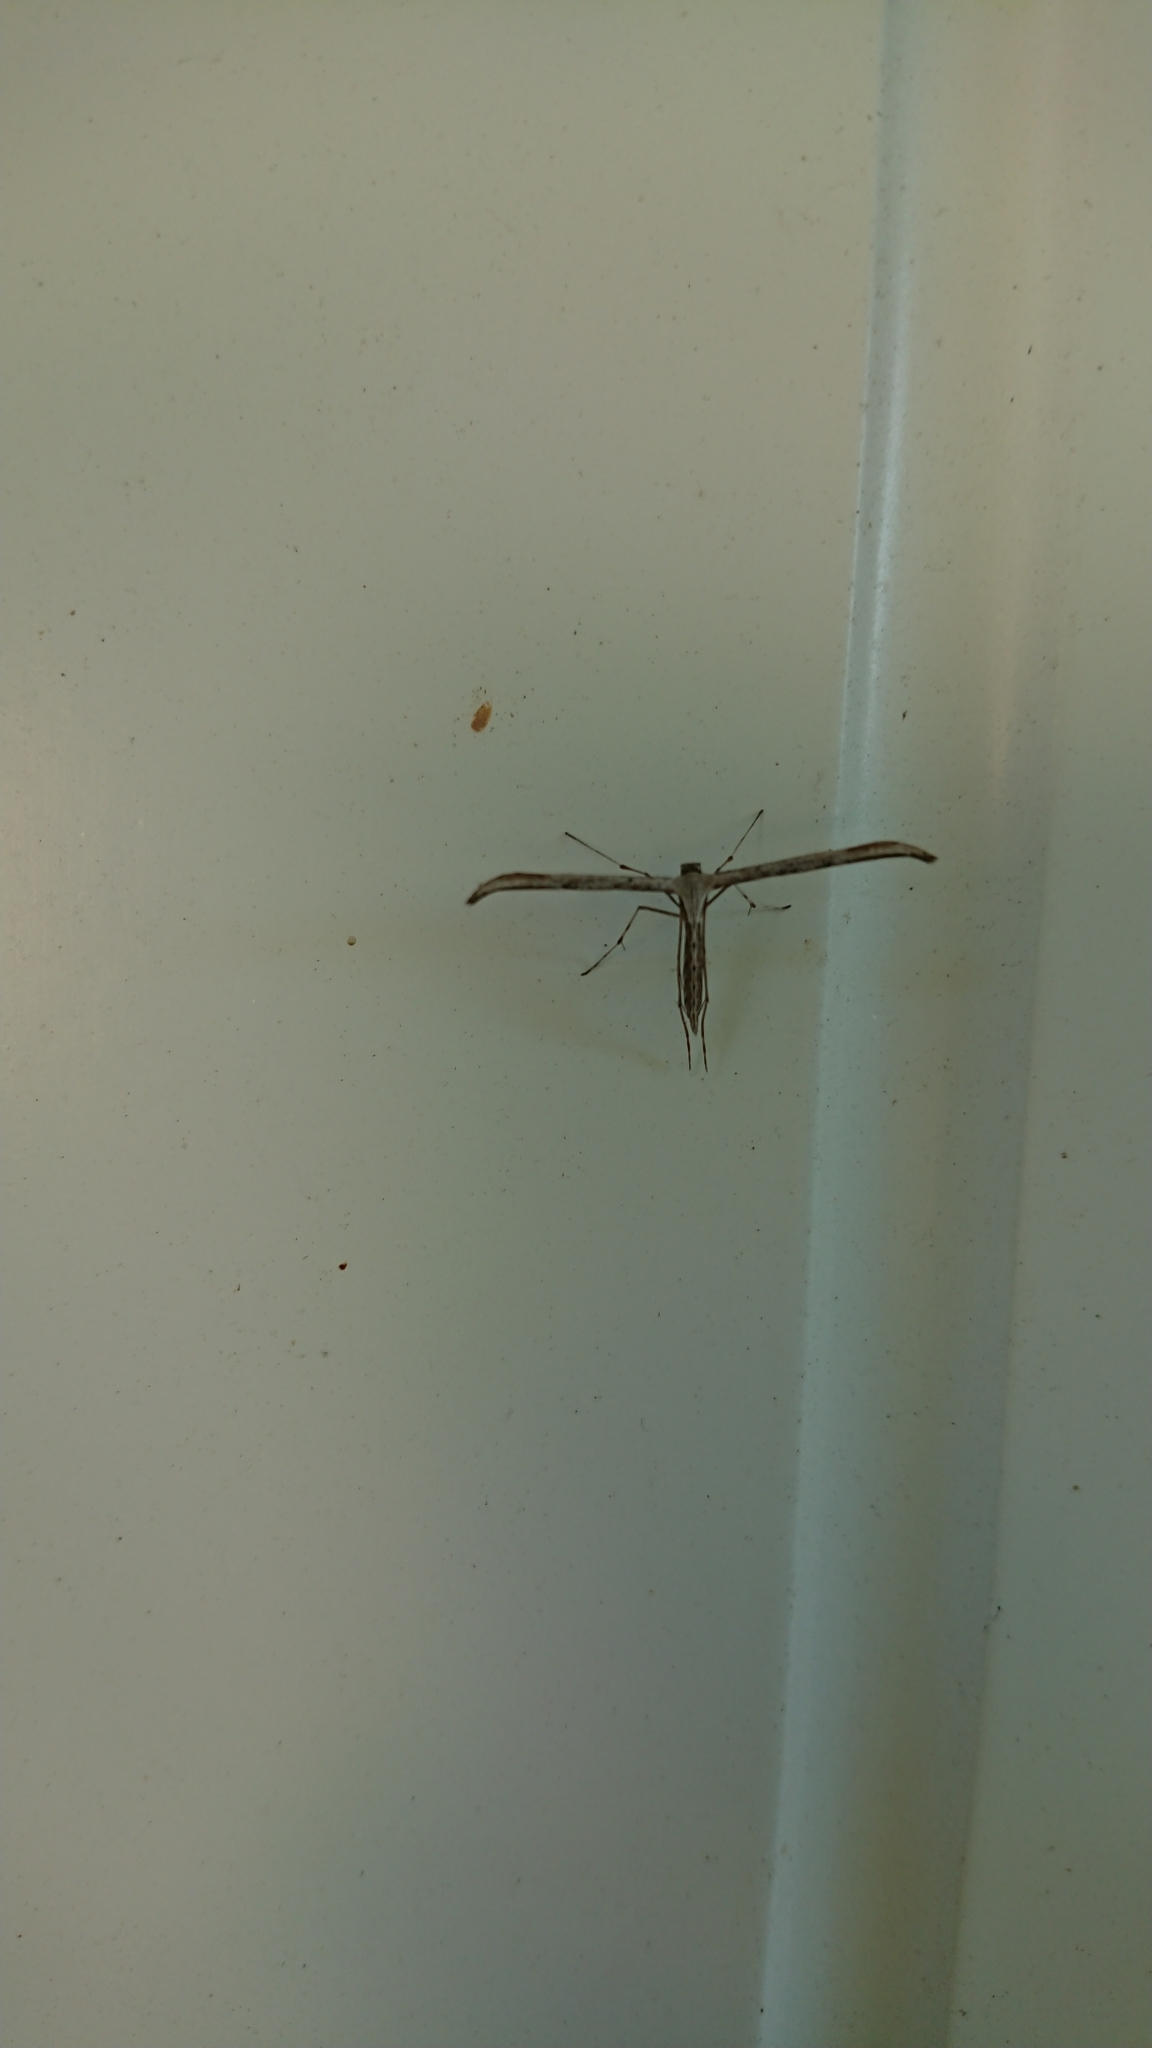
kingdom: Animalia
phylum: Arthropoda
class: Insecta
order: Lepidoptera
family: Pterophoridae
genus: Emmelina
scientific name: Emmelina monodactyla
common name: Common plume
